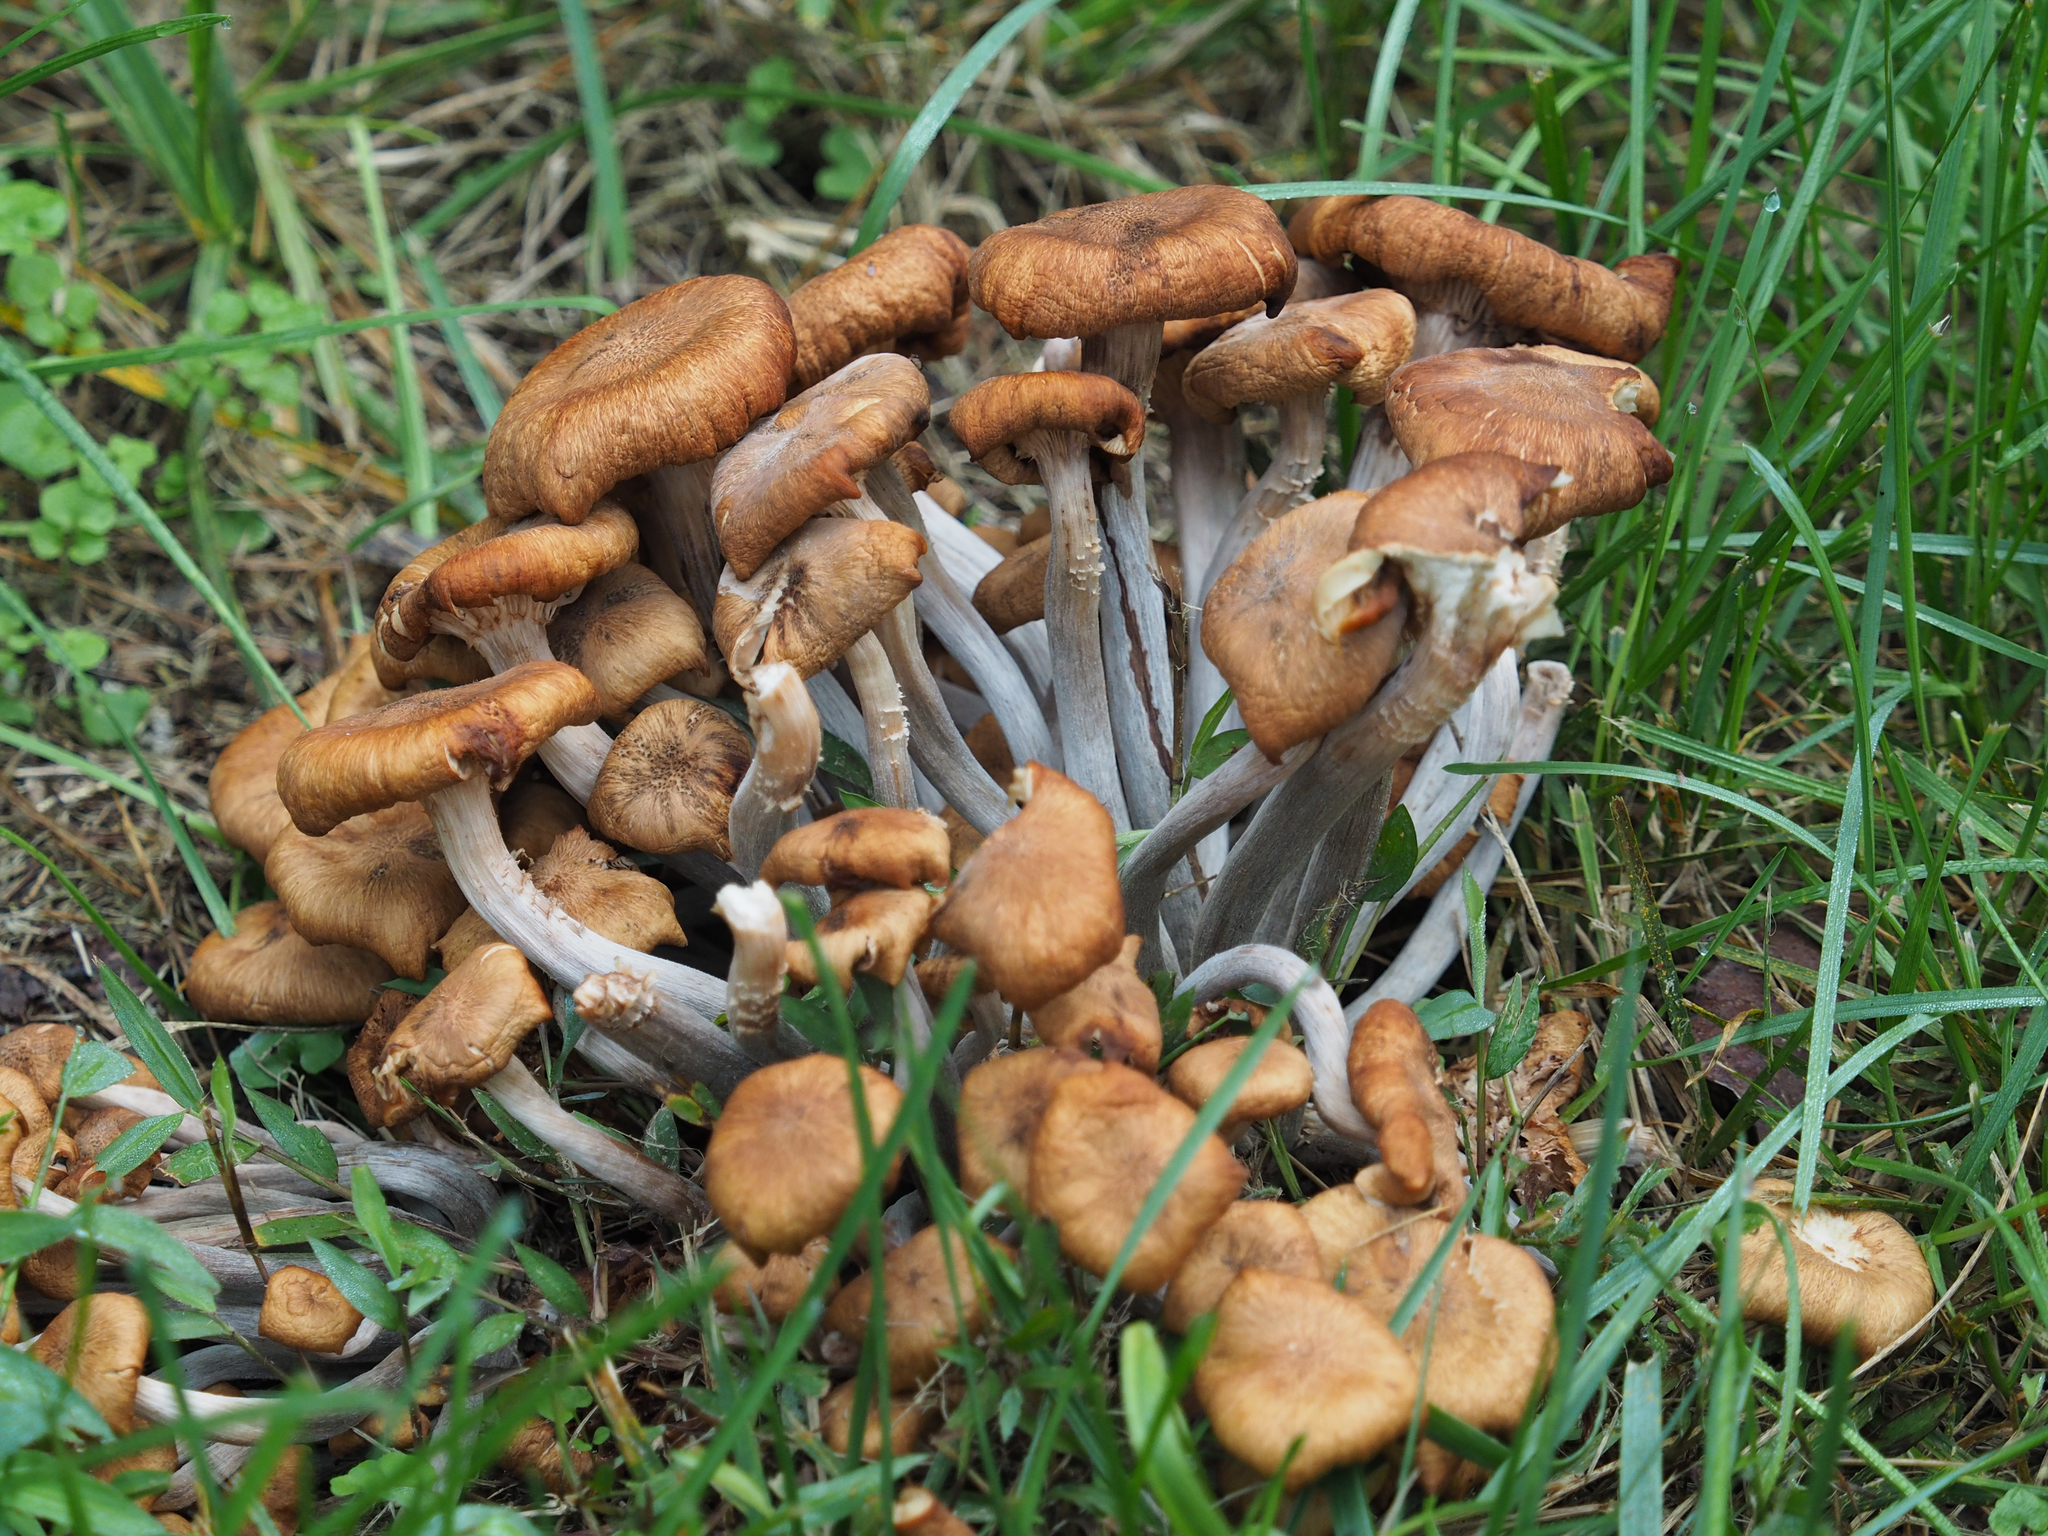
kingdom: Fungi
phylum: Basidiomycota
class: Agaricomycetes
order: Agaricales
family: Physalacriaceae
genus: Desarmillaria
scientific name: Desarmillaria caespitosa
